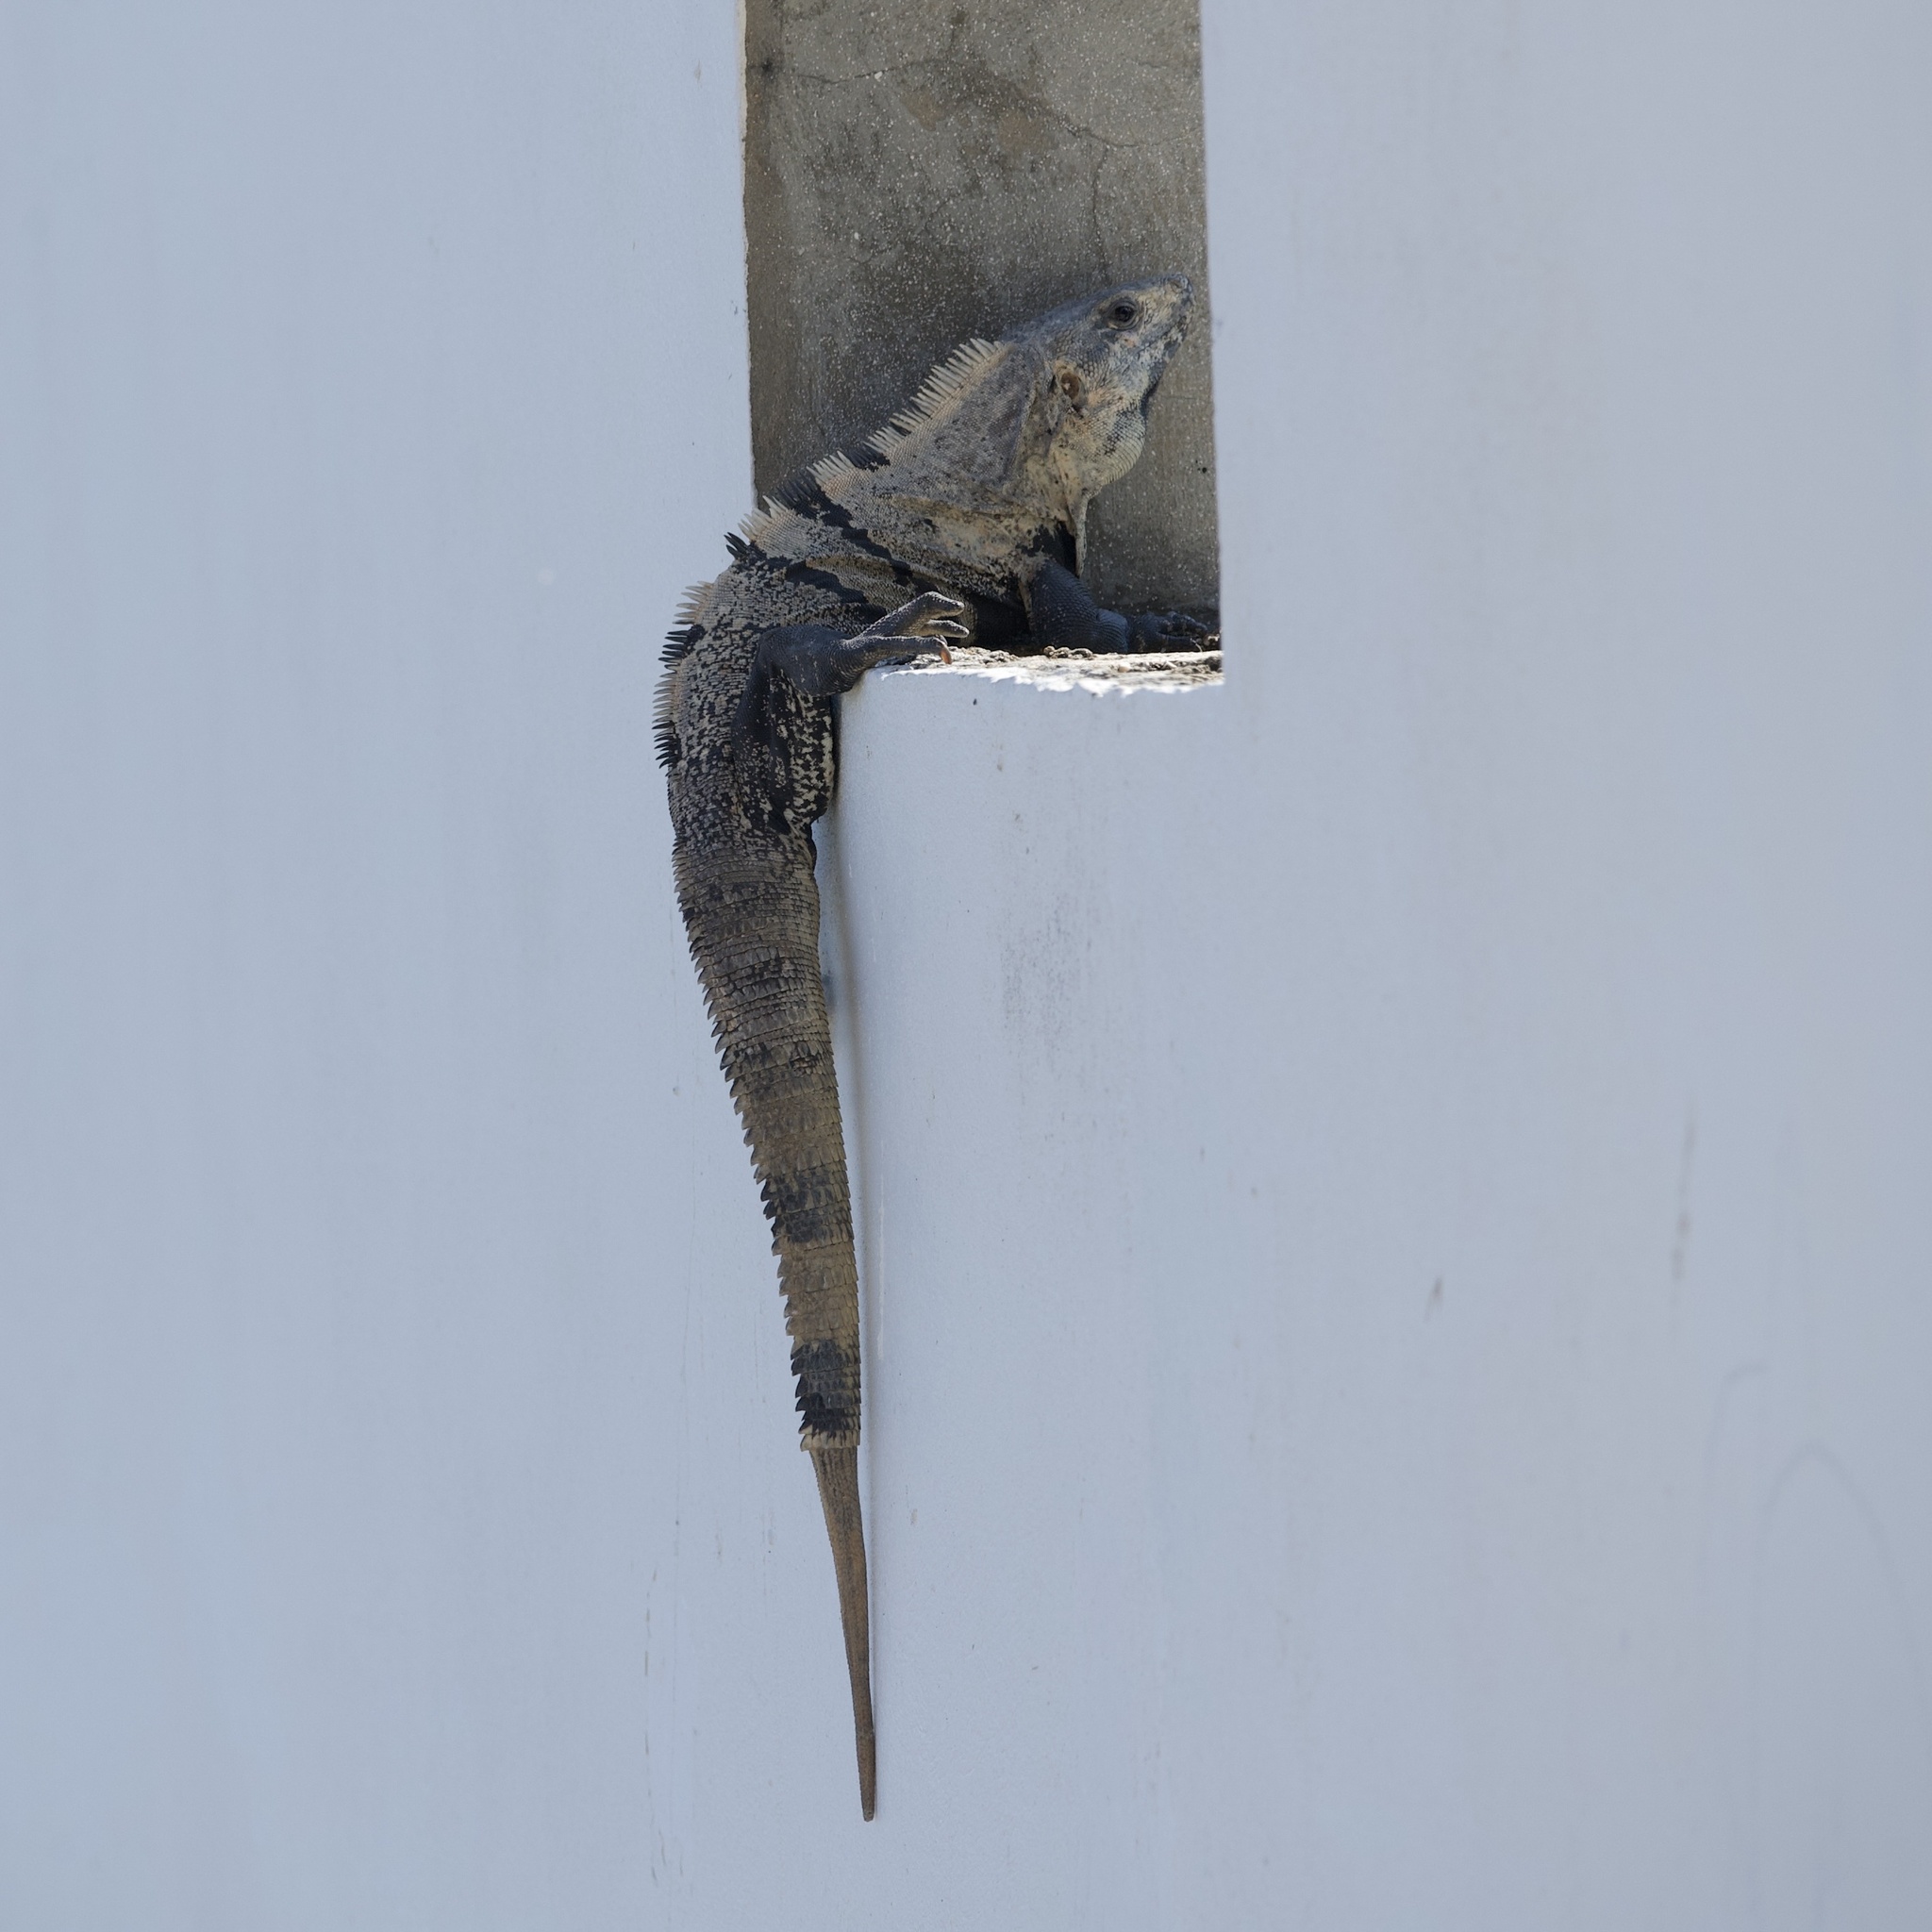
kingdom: Animalia
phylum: Chordata
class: Squamata
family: Iguanidae
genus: Ctenosaura
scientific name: Ctenosaura similis
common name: Black spiny-tailed iguana
